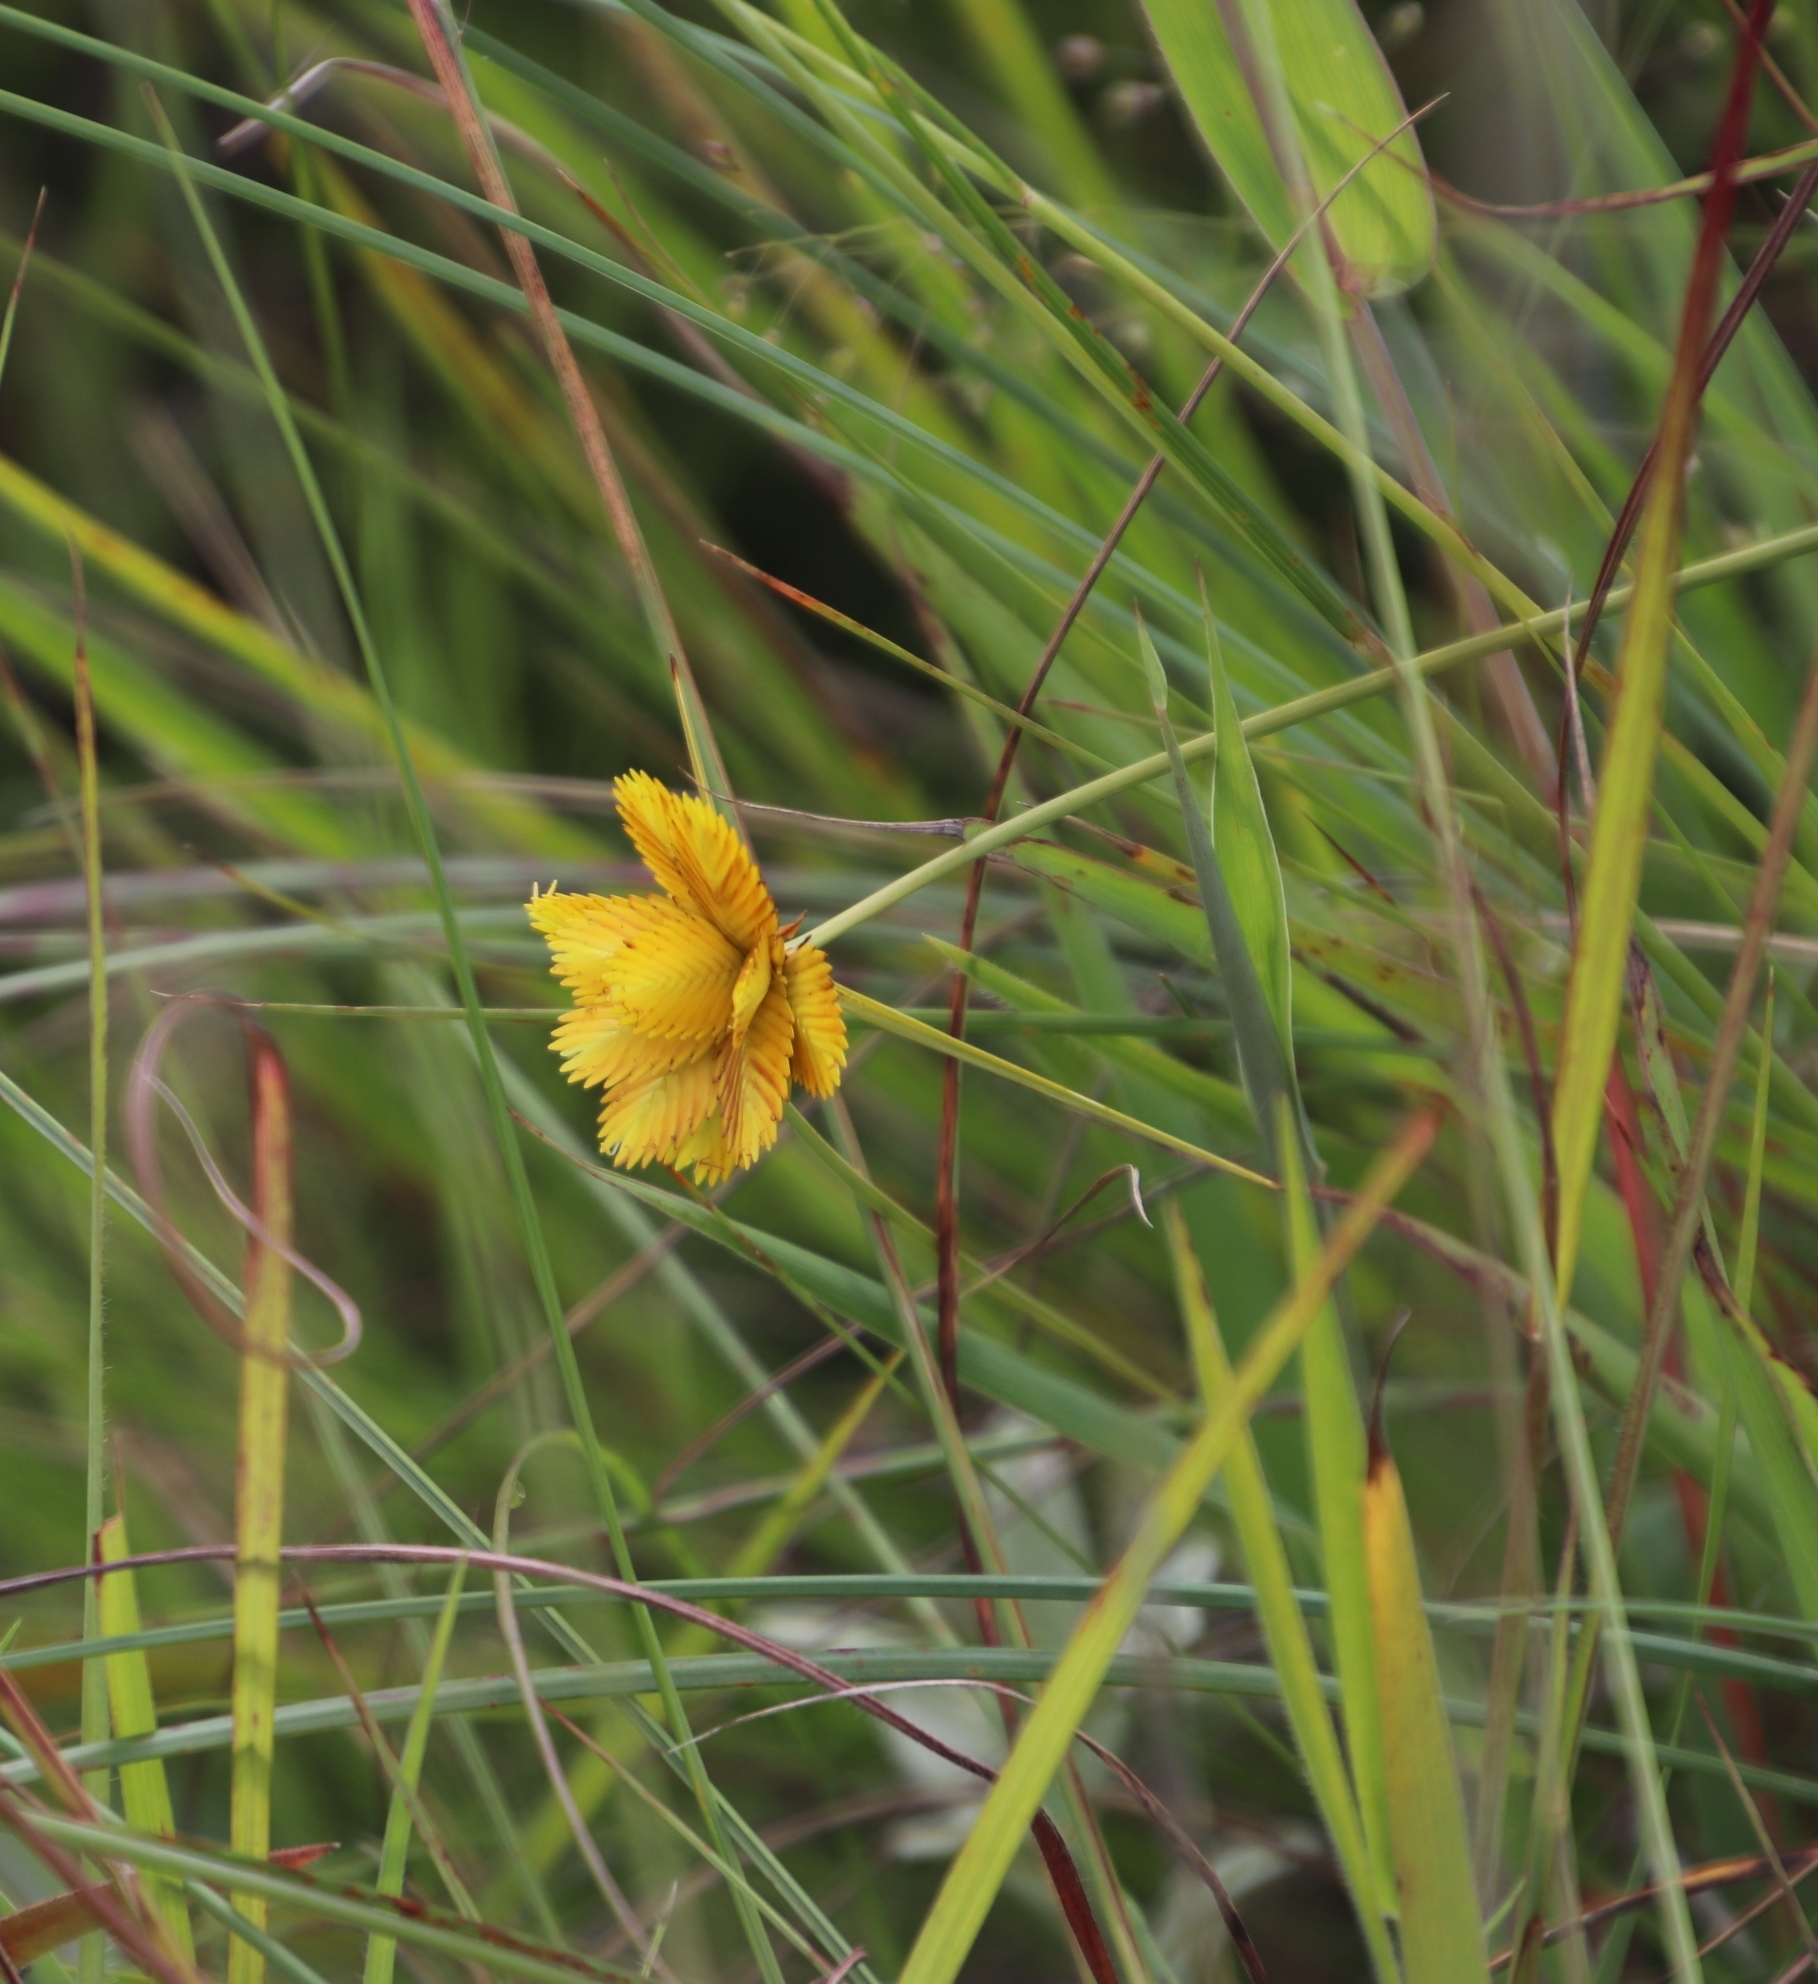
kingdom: Plantae
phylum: Tracheophyta
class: Liliopsida
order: Poales
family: Cyperaceae
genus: Cyperus
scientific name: Cyperus sphaerocephalus
